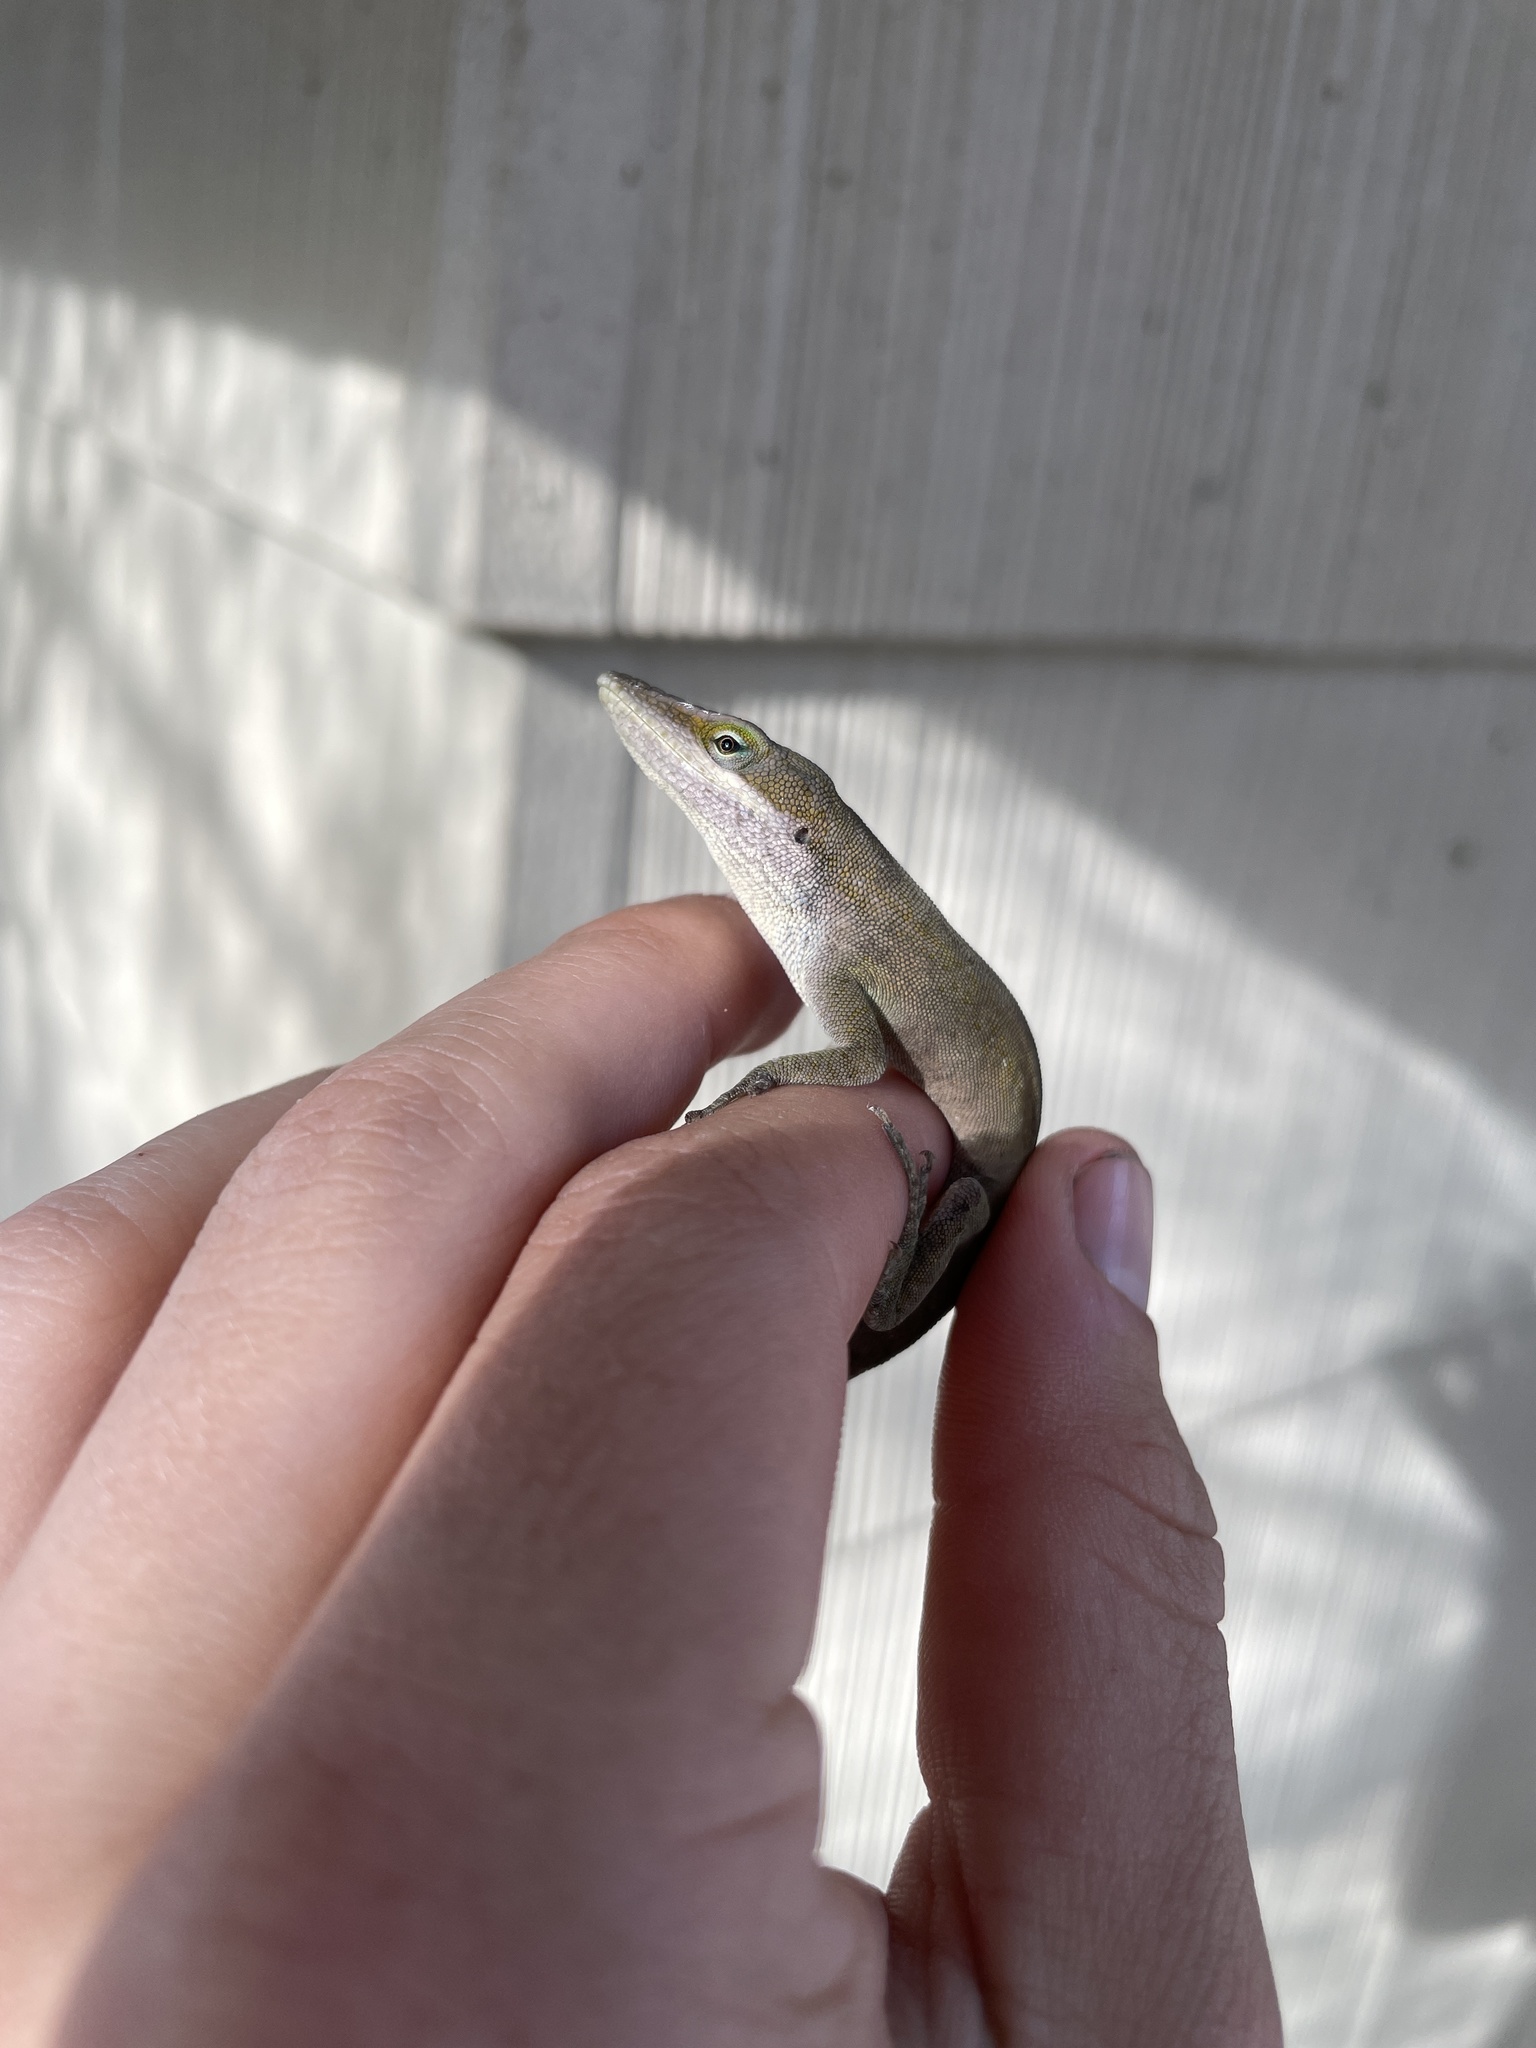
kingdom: Animalia
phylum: Chordata
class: Squamata
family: Dactyloidae
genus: Anolis
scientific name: Anolis carolinensis
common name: Green anole
